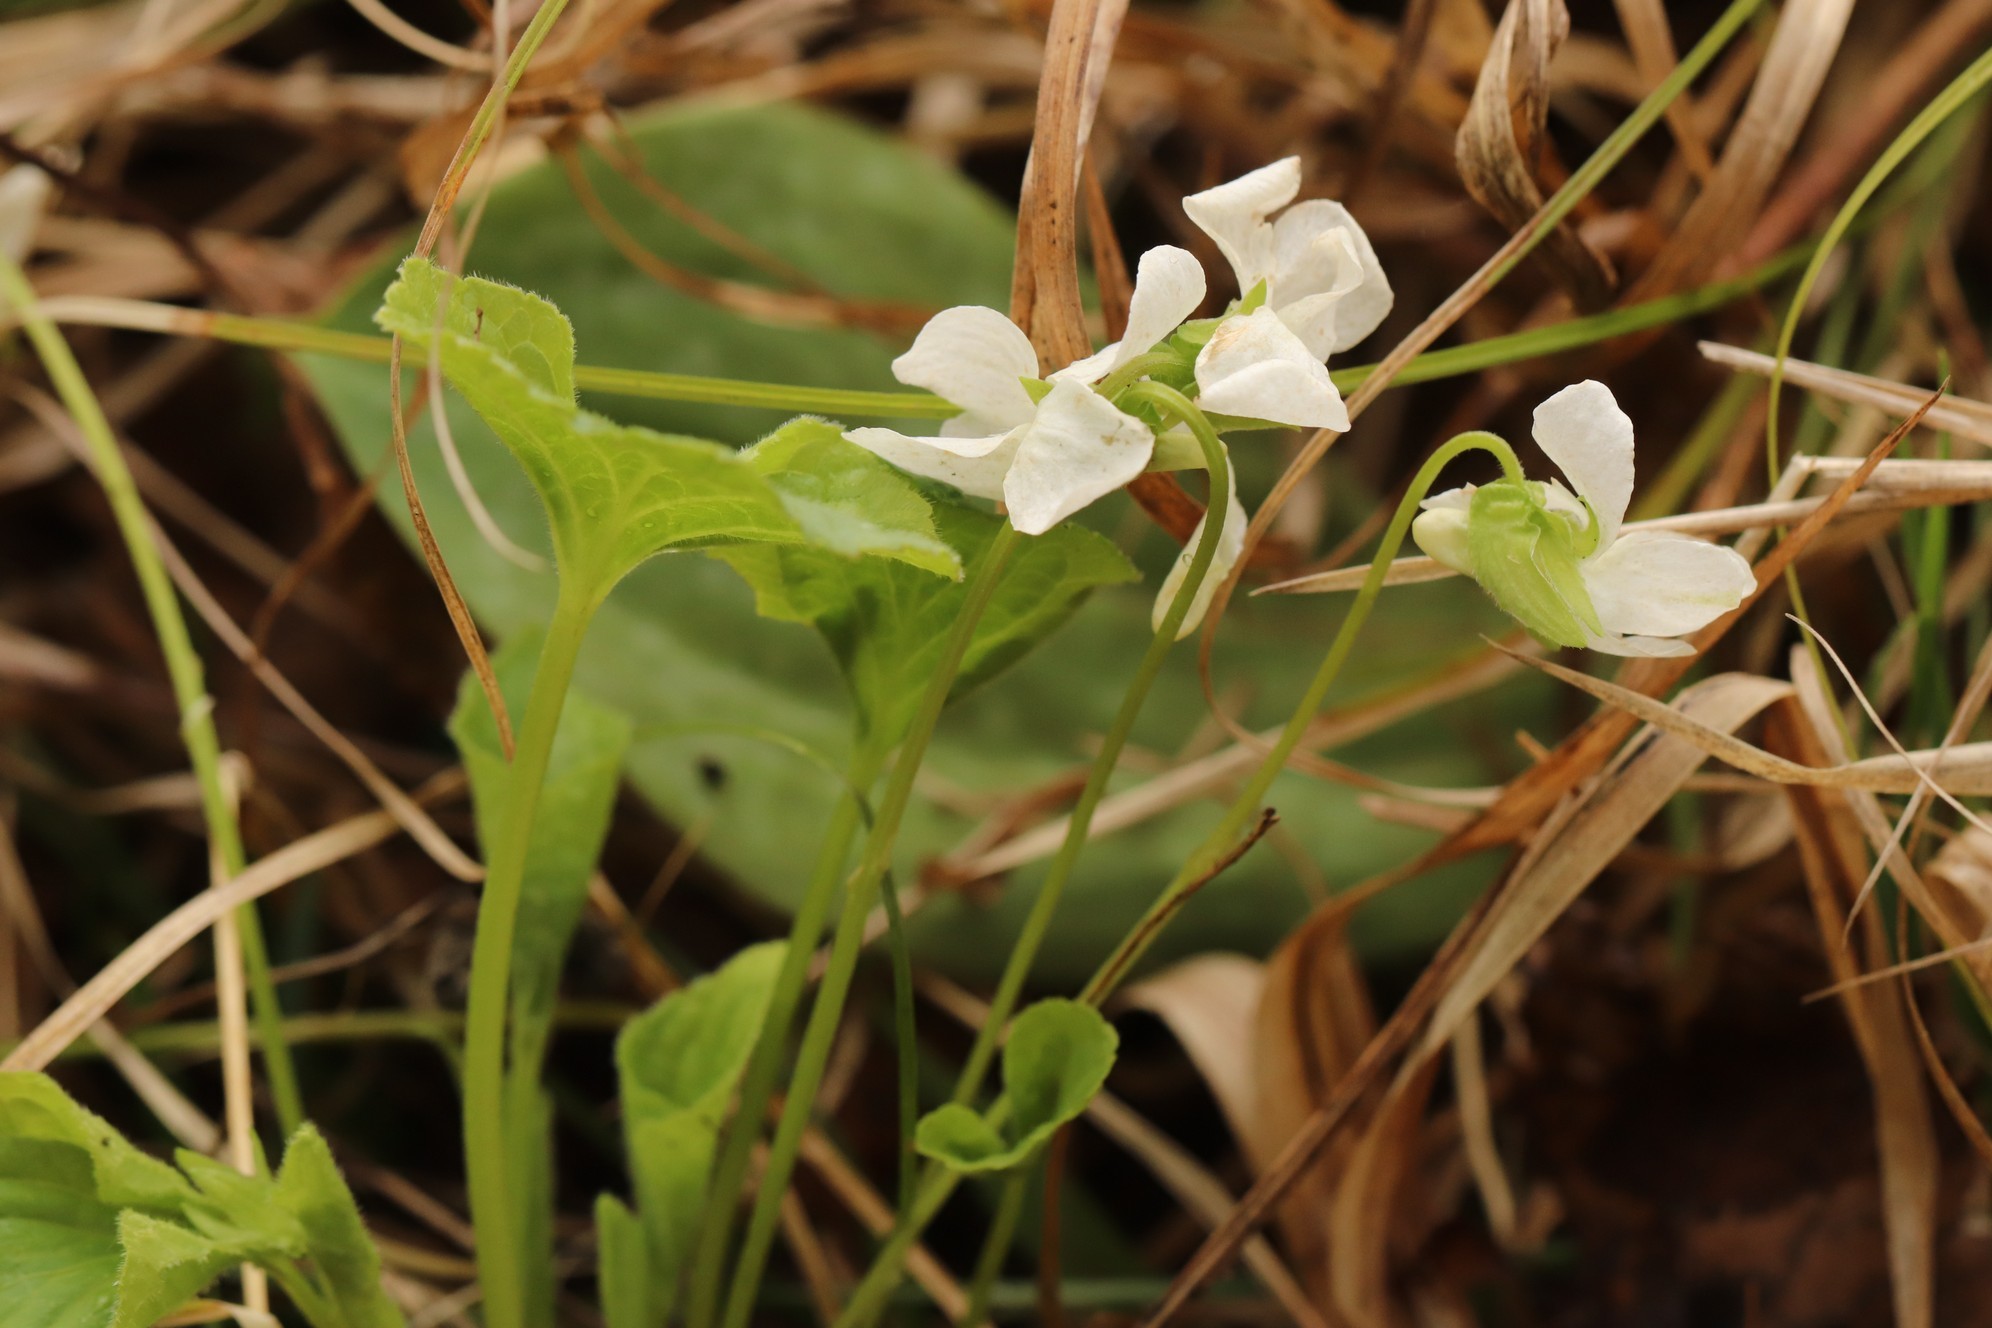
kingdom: Plantae
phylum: Tracheophyta
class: Magnoliopsida
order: Malpighiales
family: Violaceae
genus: Viola
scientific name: Viola mirabilis
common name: Wonder violet
